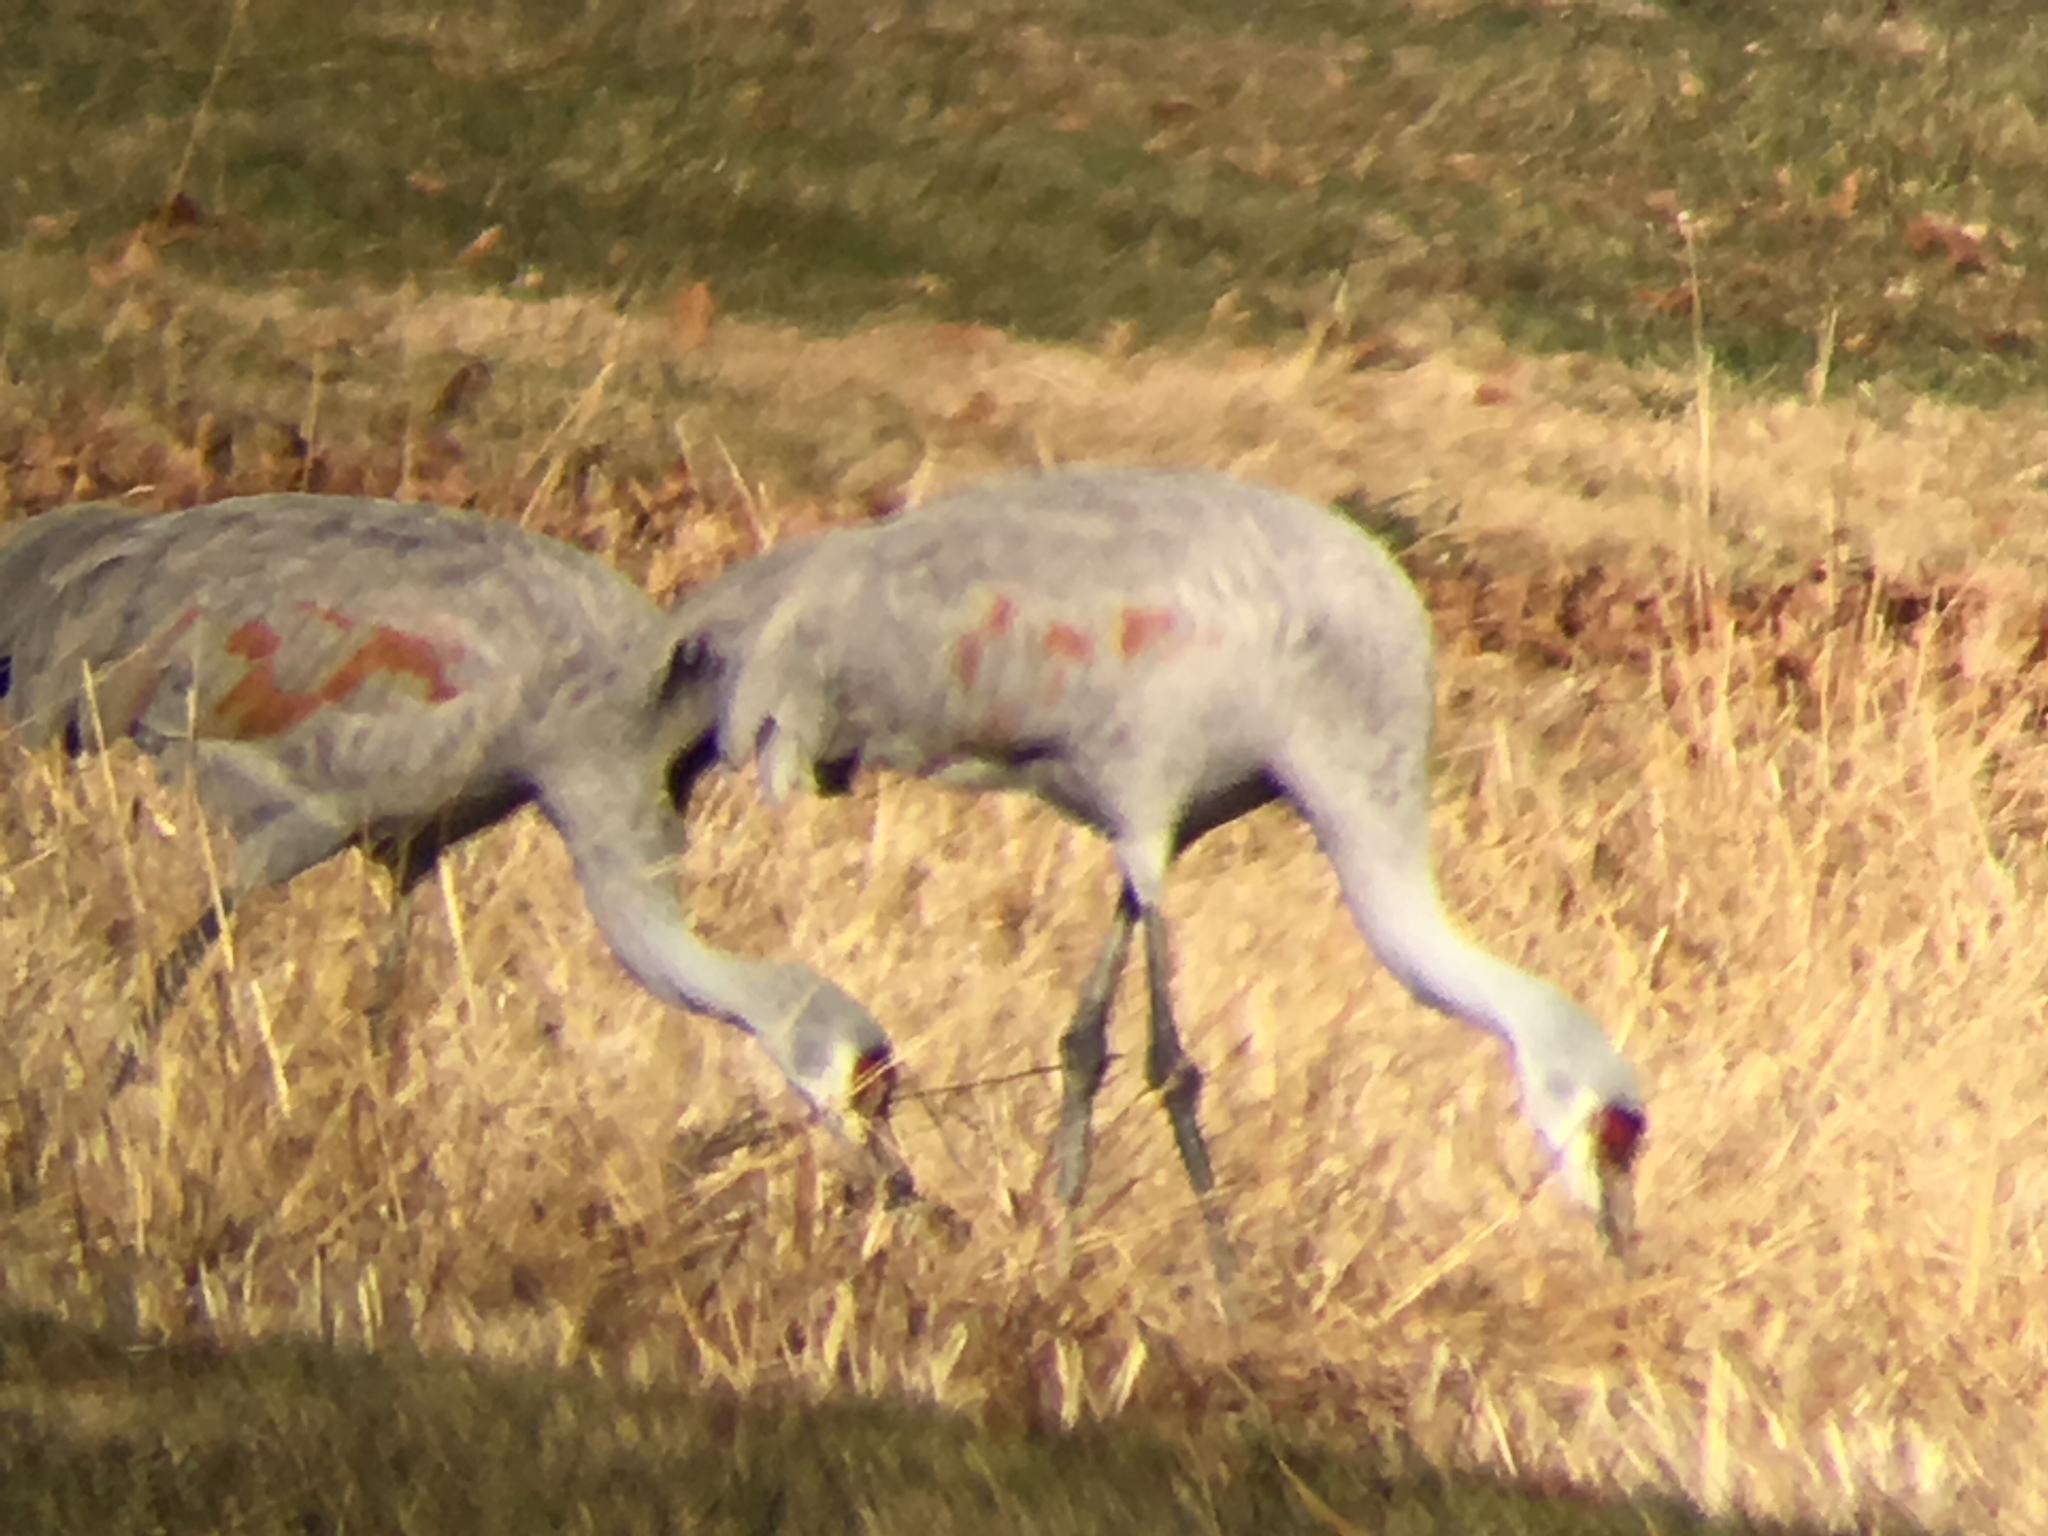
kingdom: Animalia
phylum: Chordata
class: Aves
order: Gruiformes
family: Gruidae
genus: Grus
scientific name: Grus canadensis
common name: Sandhill crane
